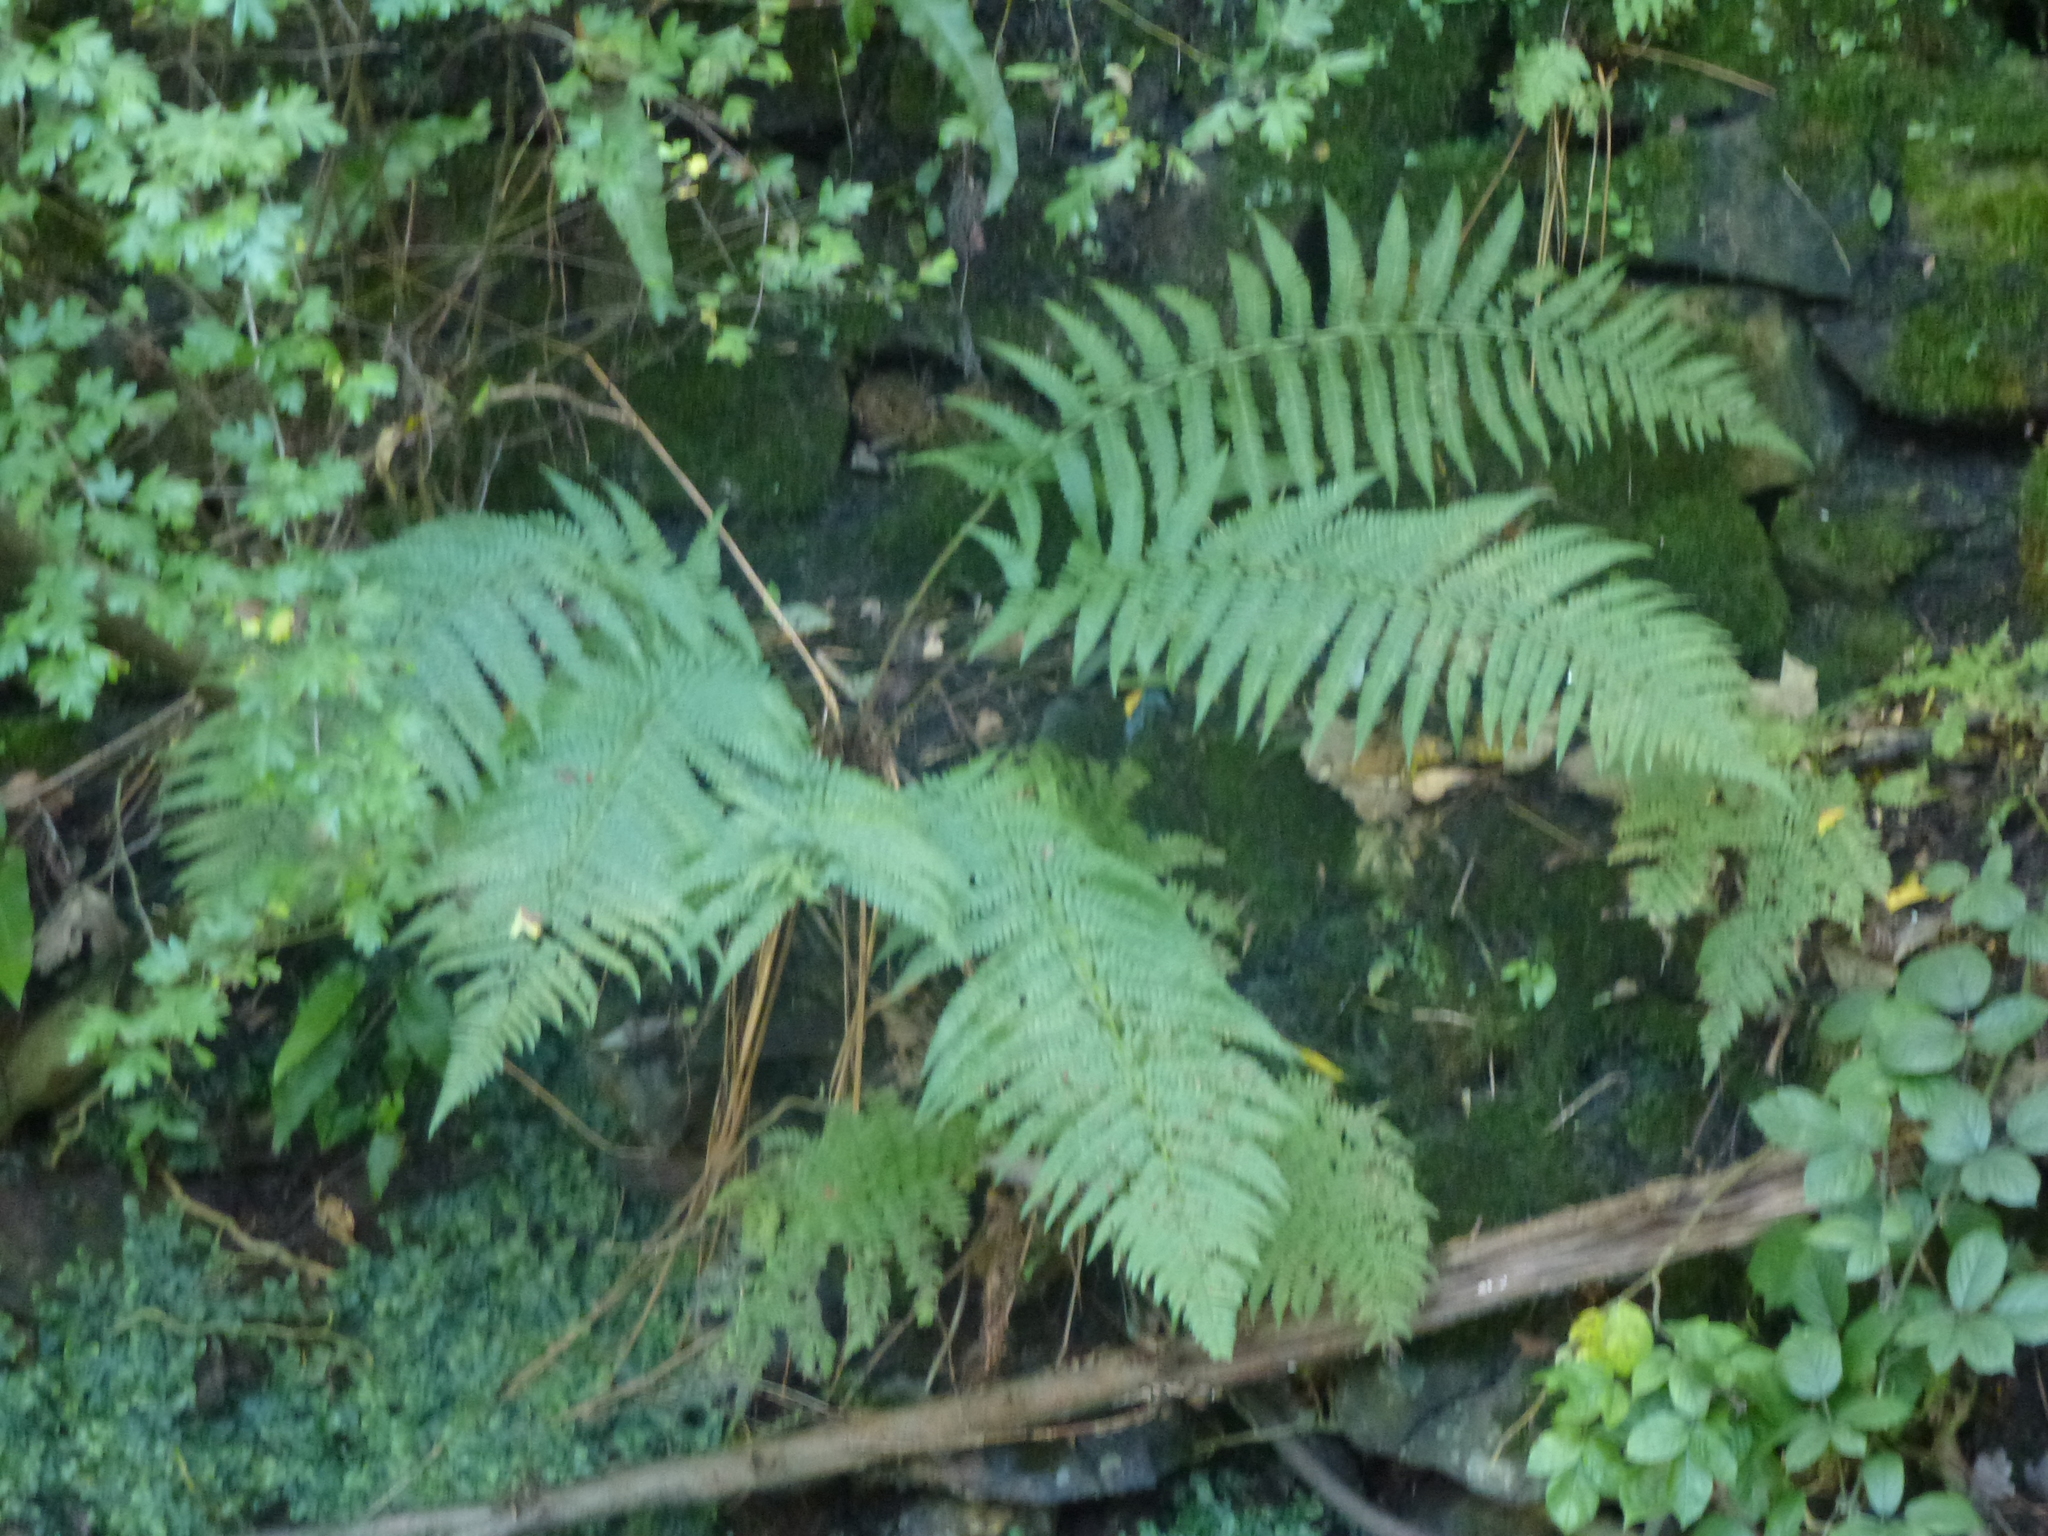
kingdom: Plantae
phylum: Tracheophyta
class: Polypodiopsida
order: Polypodiales
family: Dryopteridaceae
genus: Dryopteris
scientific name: Dryopteris filix-mas
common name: Male fern
